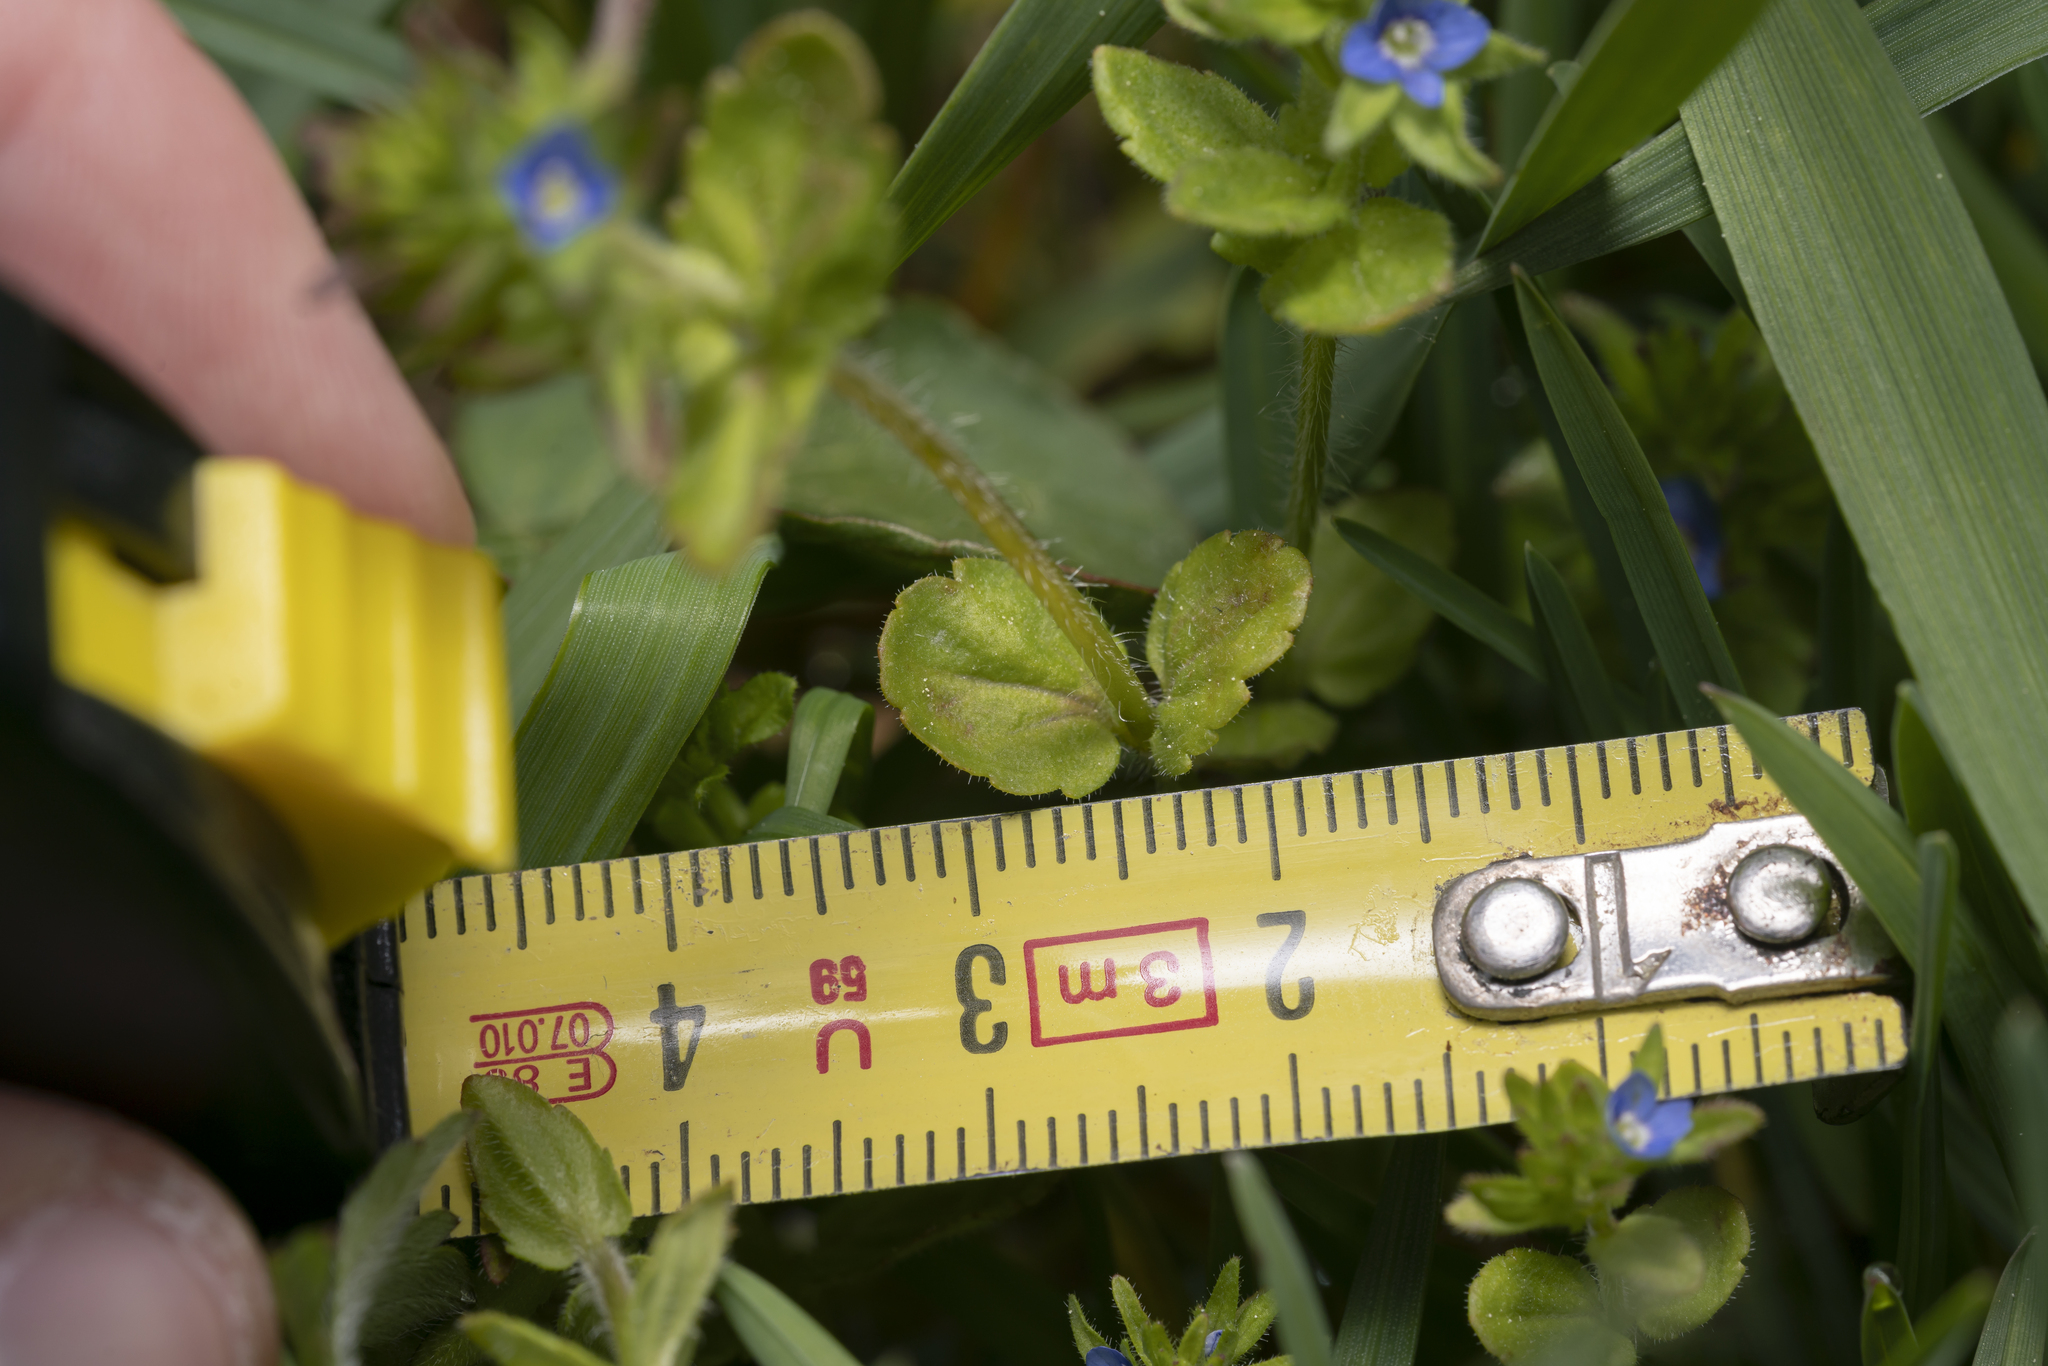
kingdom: Plantae
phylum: Tracheophyta
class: Magnoliopsida
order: Lamiales
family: Plantaginaceae
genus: Veronica
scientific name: Veronica arvensis
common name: Corn speedwell
